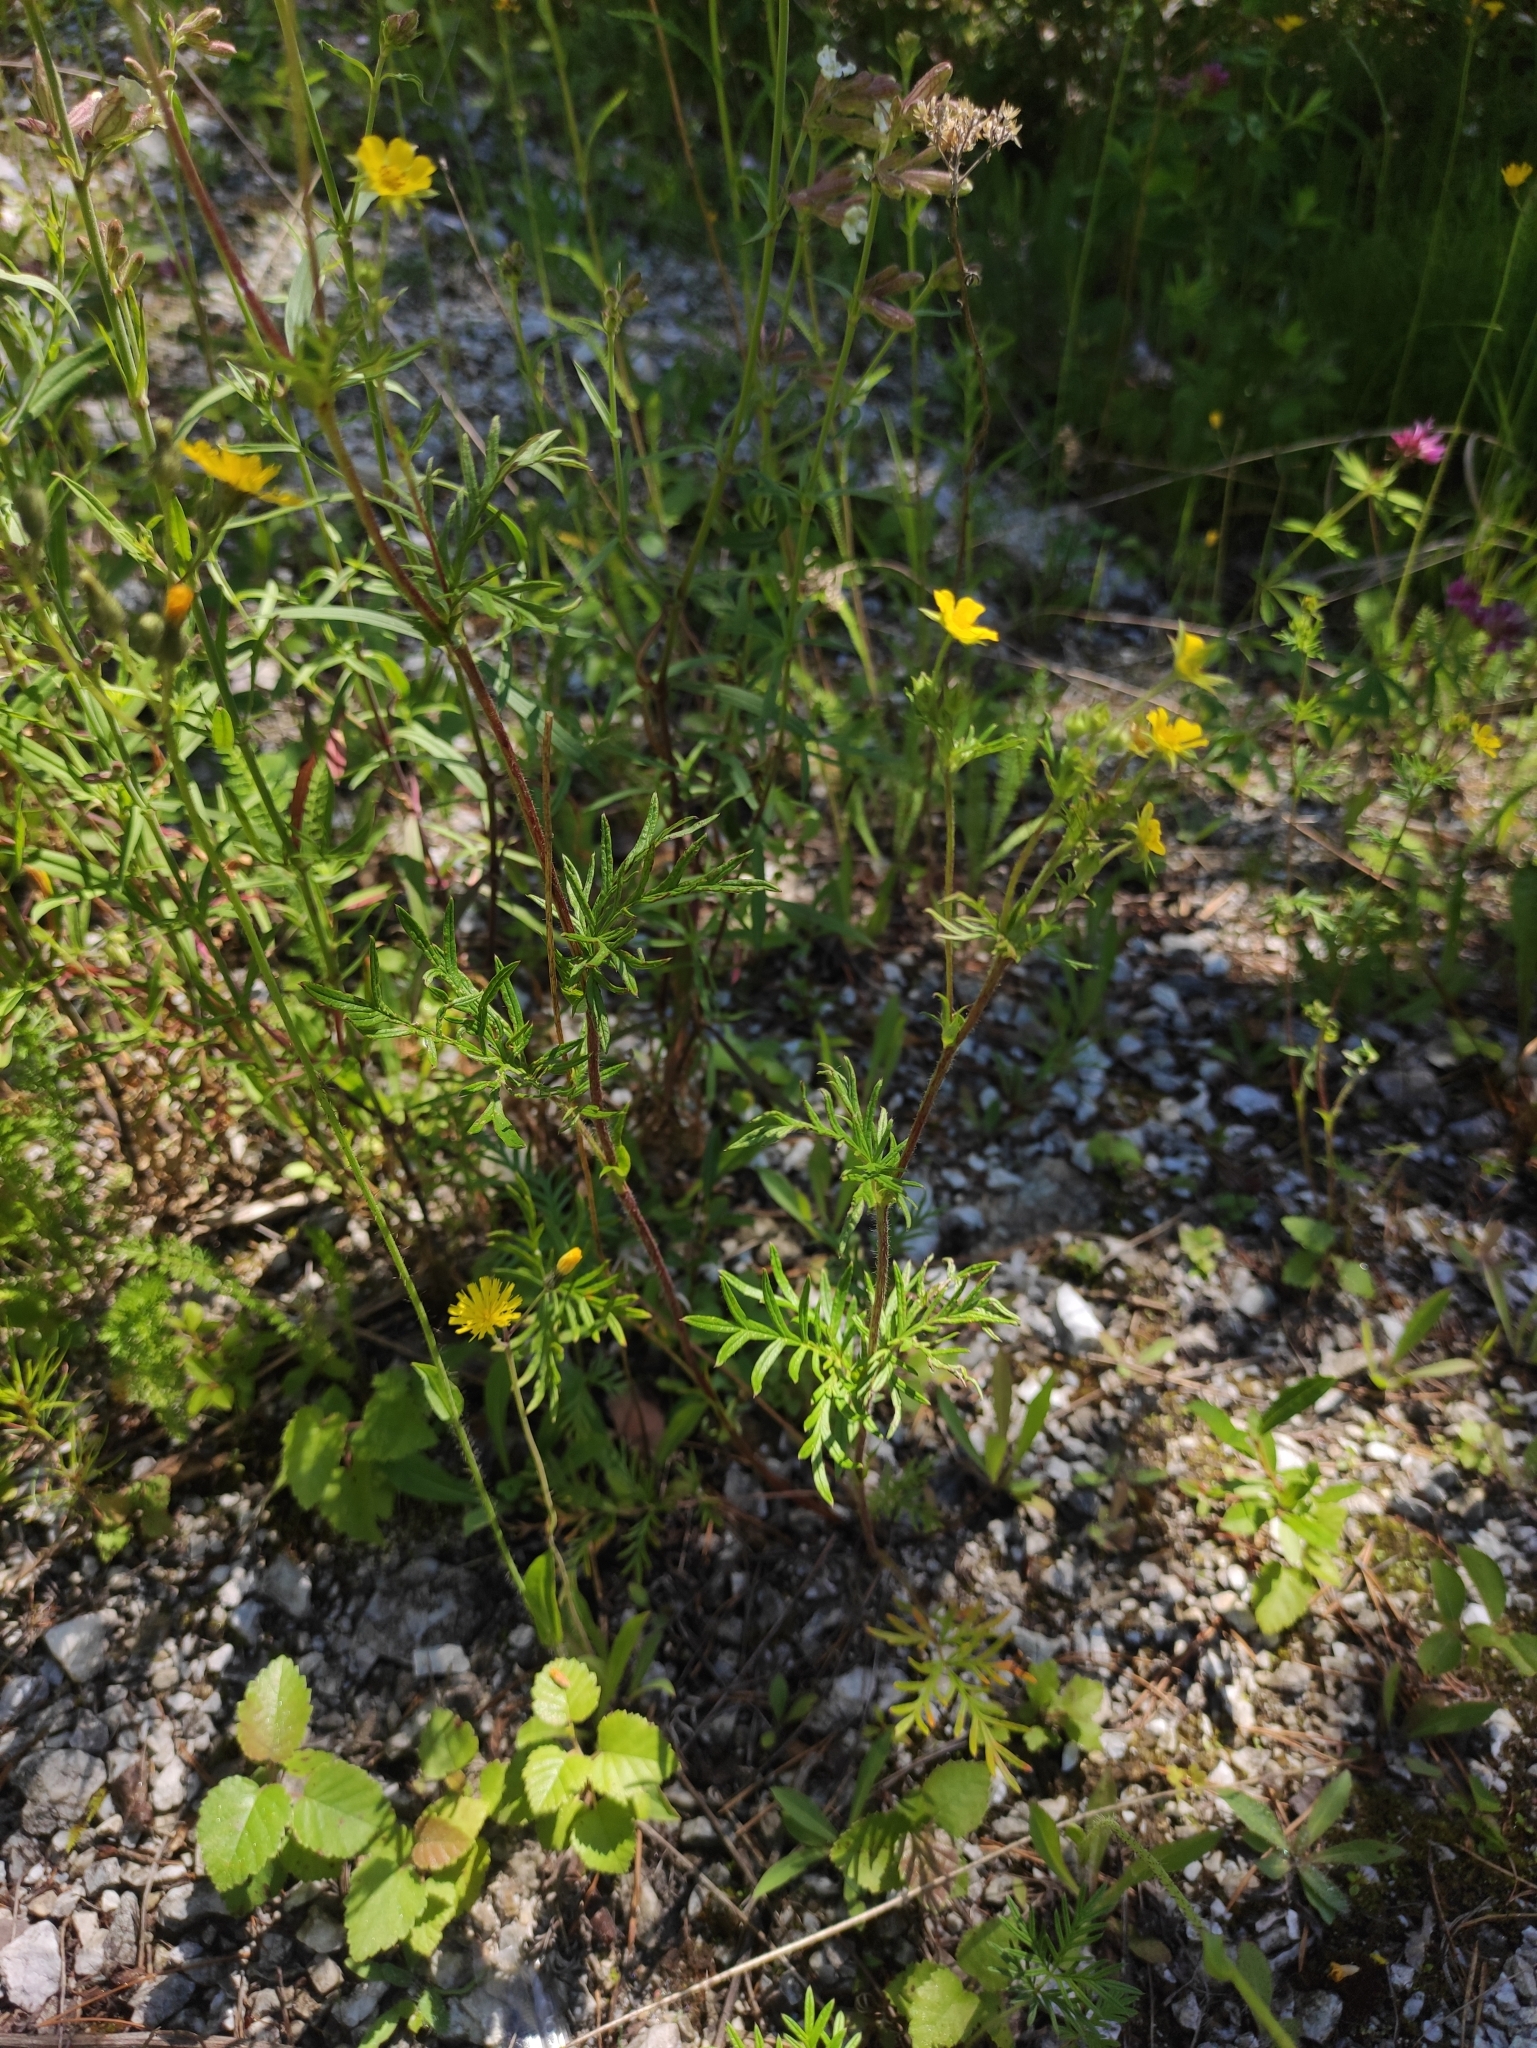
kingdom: Plantae
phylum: Tracheophyta
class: Magnoliopsida
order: Rosales
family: Rosaceae
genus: Potentilla
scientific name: Potentilla tergemina
